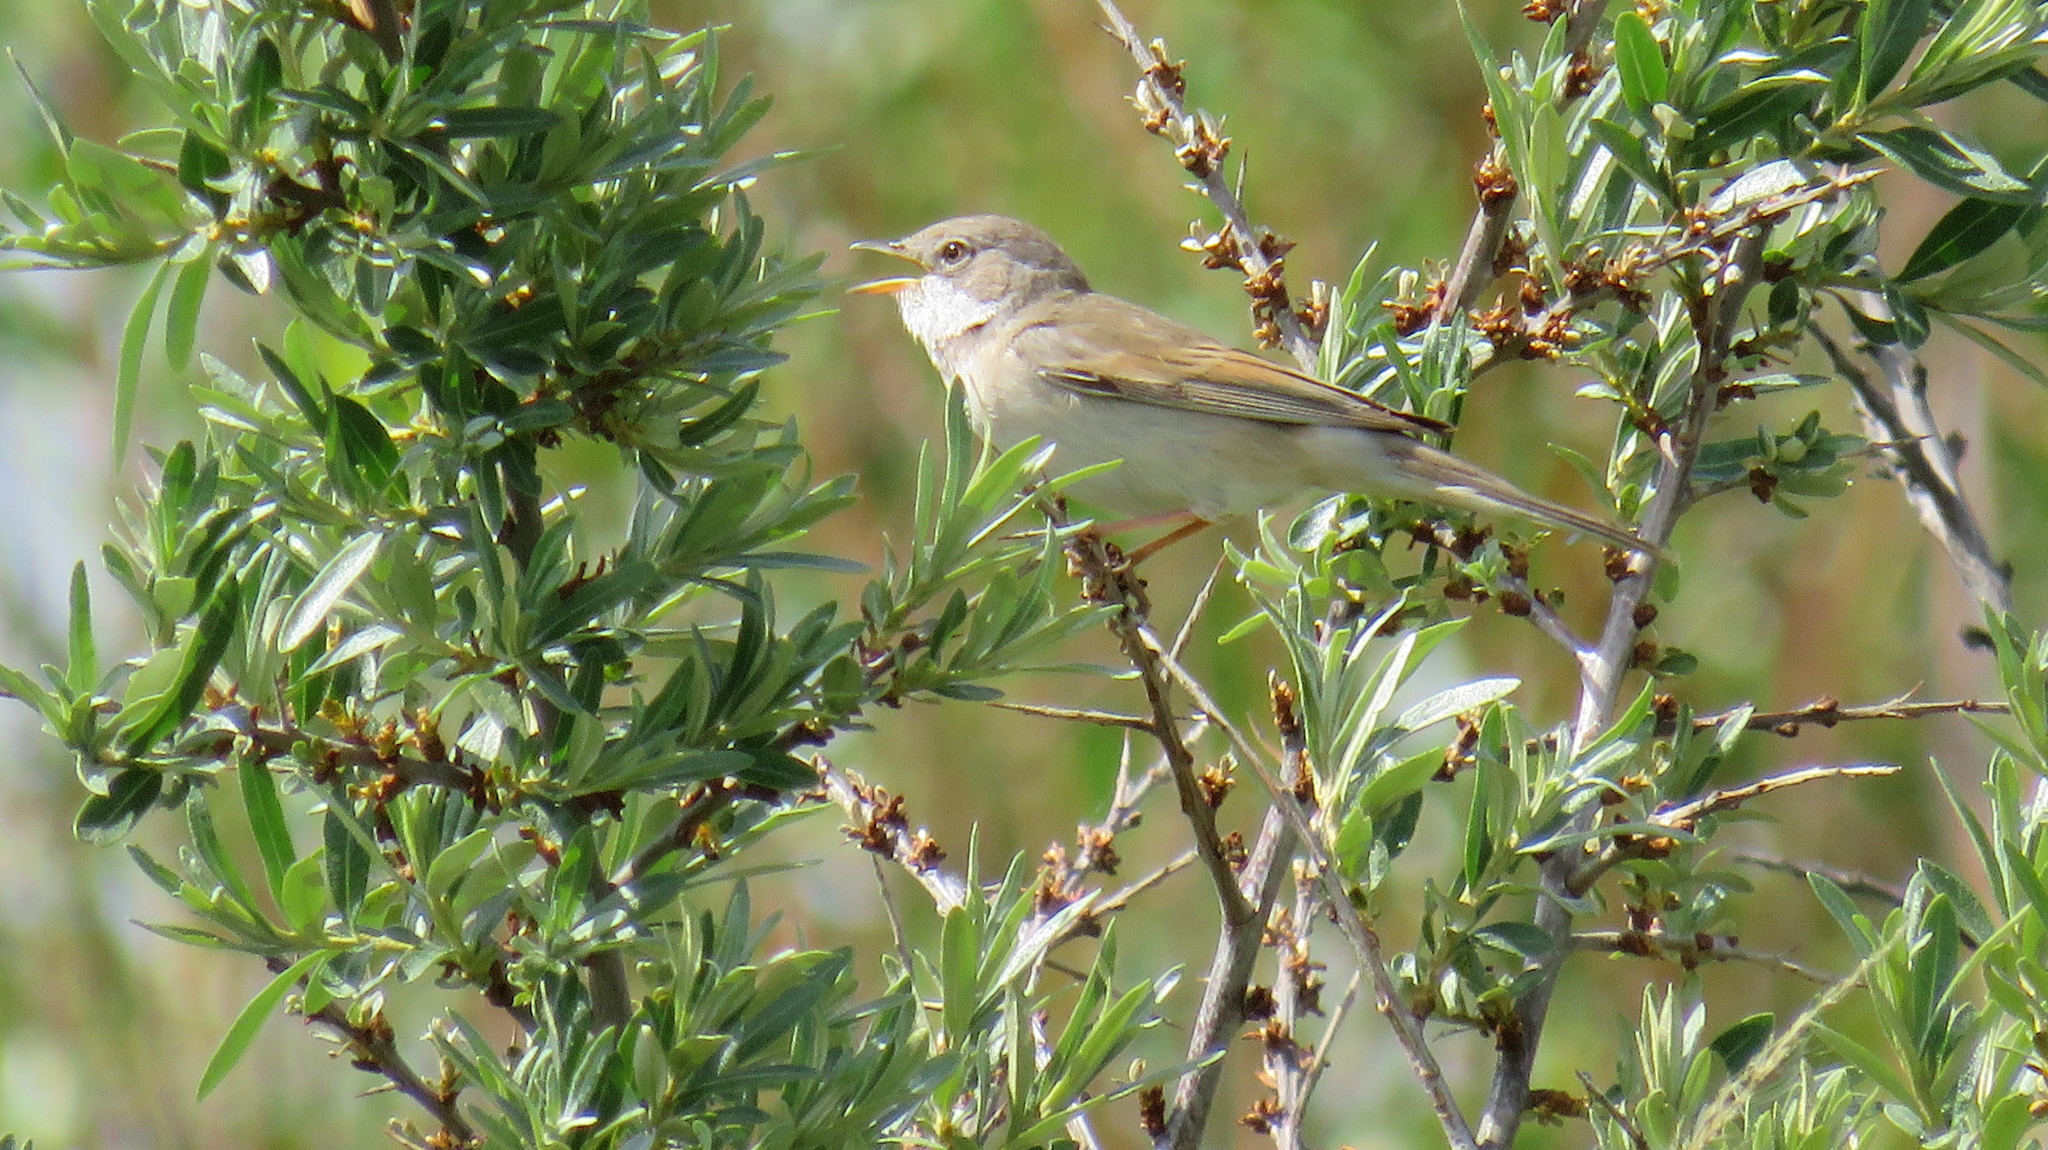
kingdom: Animalia
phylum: Chordata
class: Aves
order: Passeriformes
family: Sylviidae
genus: Sylvia
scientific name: Sylvia communis
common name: Common whitethroat
